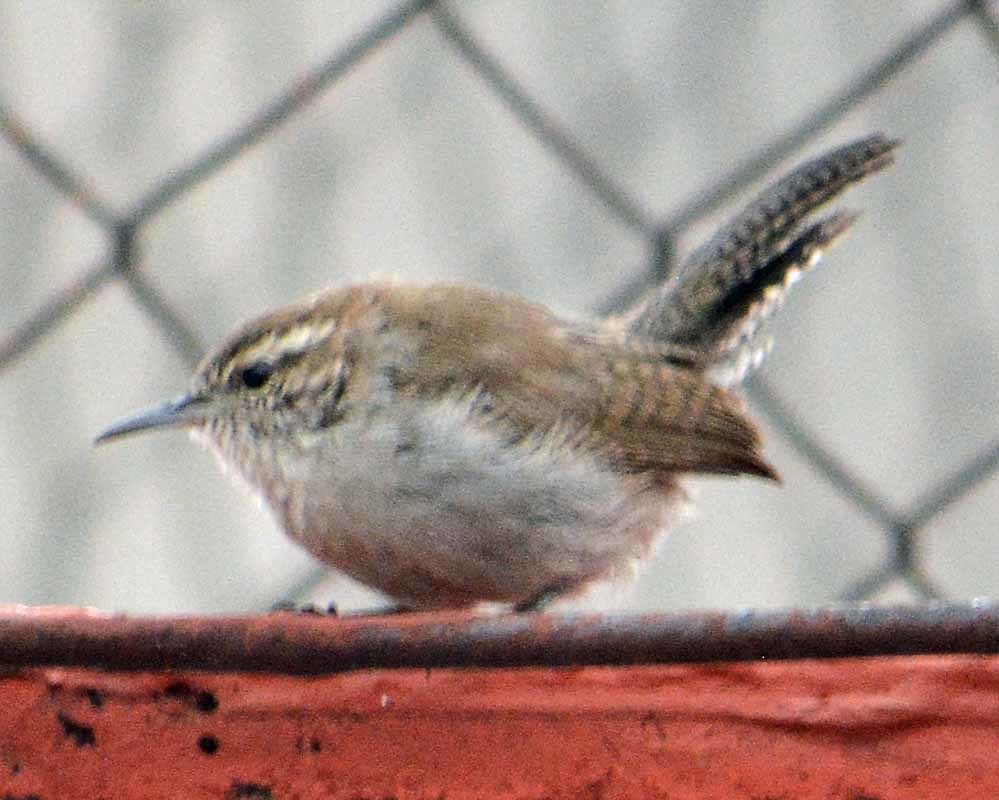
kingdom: Animalia
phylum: Chordata
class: Aves
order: Passeriformes
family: Troglodytidae
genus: Thryomanes
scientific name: Thryomanes bewickii
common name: Bewick's wren
